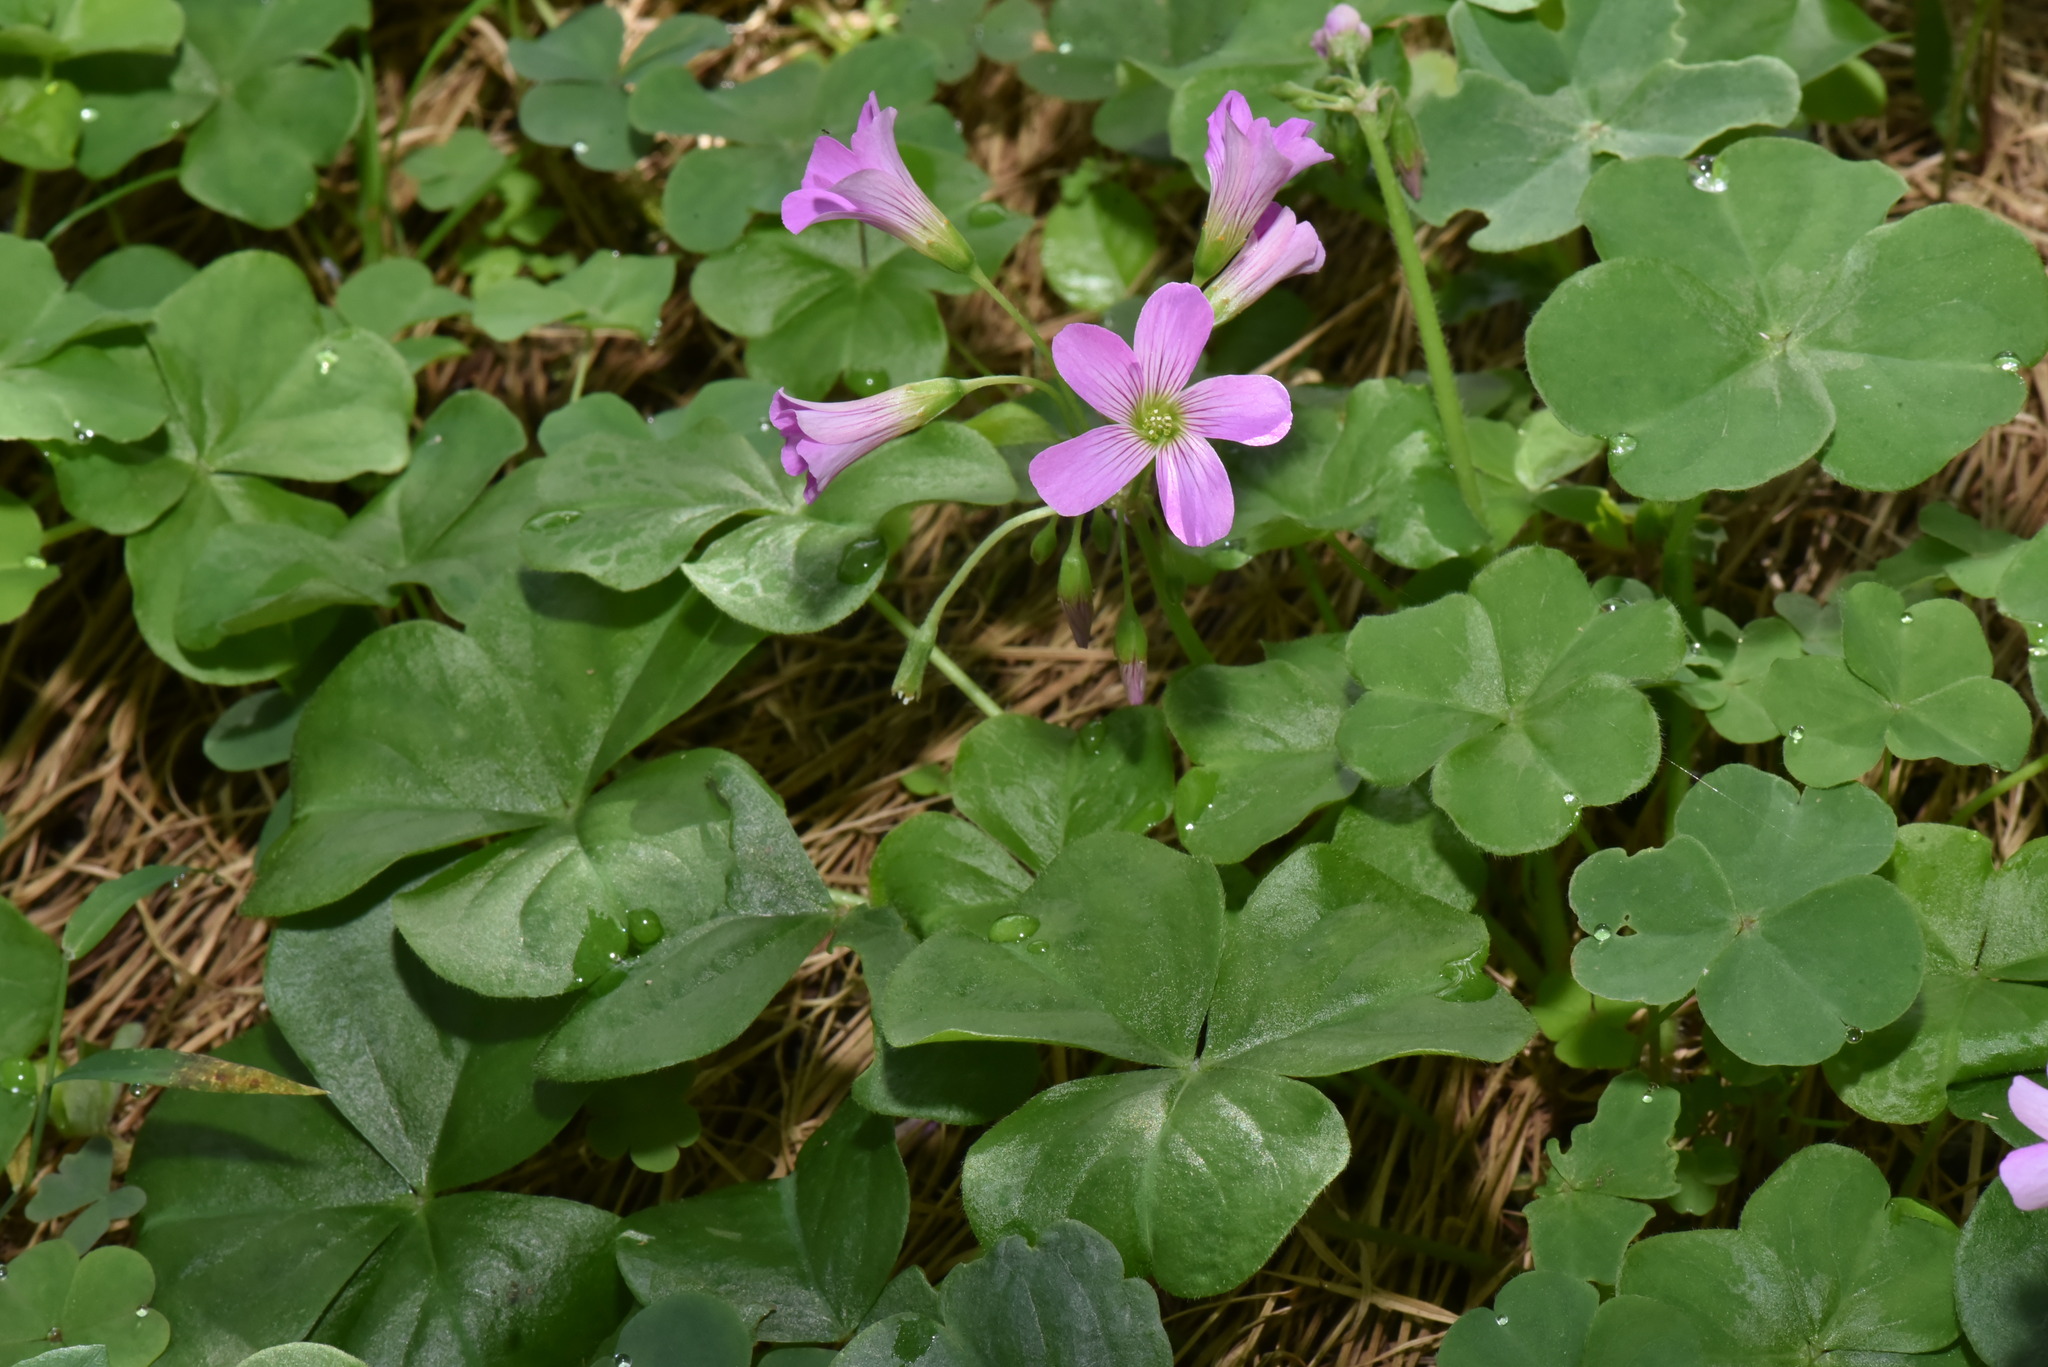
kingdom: Plantae
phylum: Tracheophyta
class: Magnoliopsida
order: Oxalidales
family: Oxalidaceae
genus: Oxalis
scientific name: Oxalis debilis
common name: Large-flowered pink-sorrel
